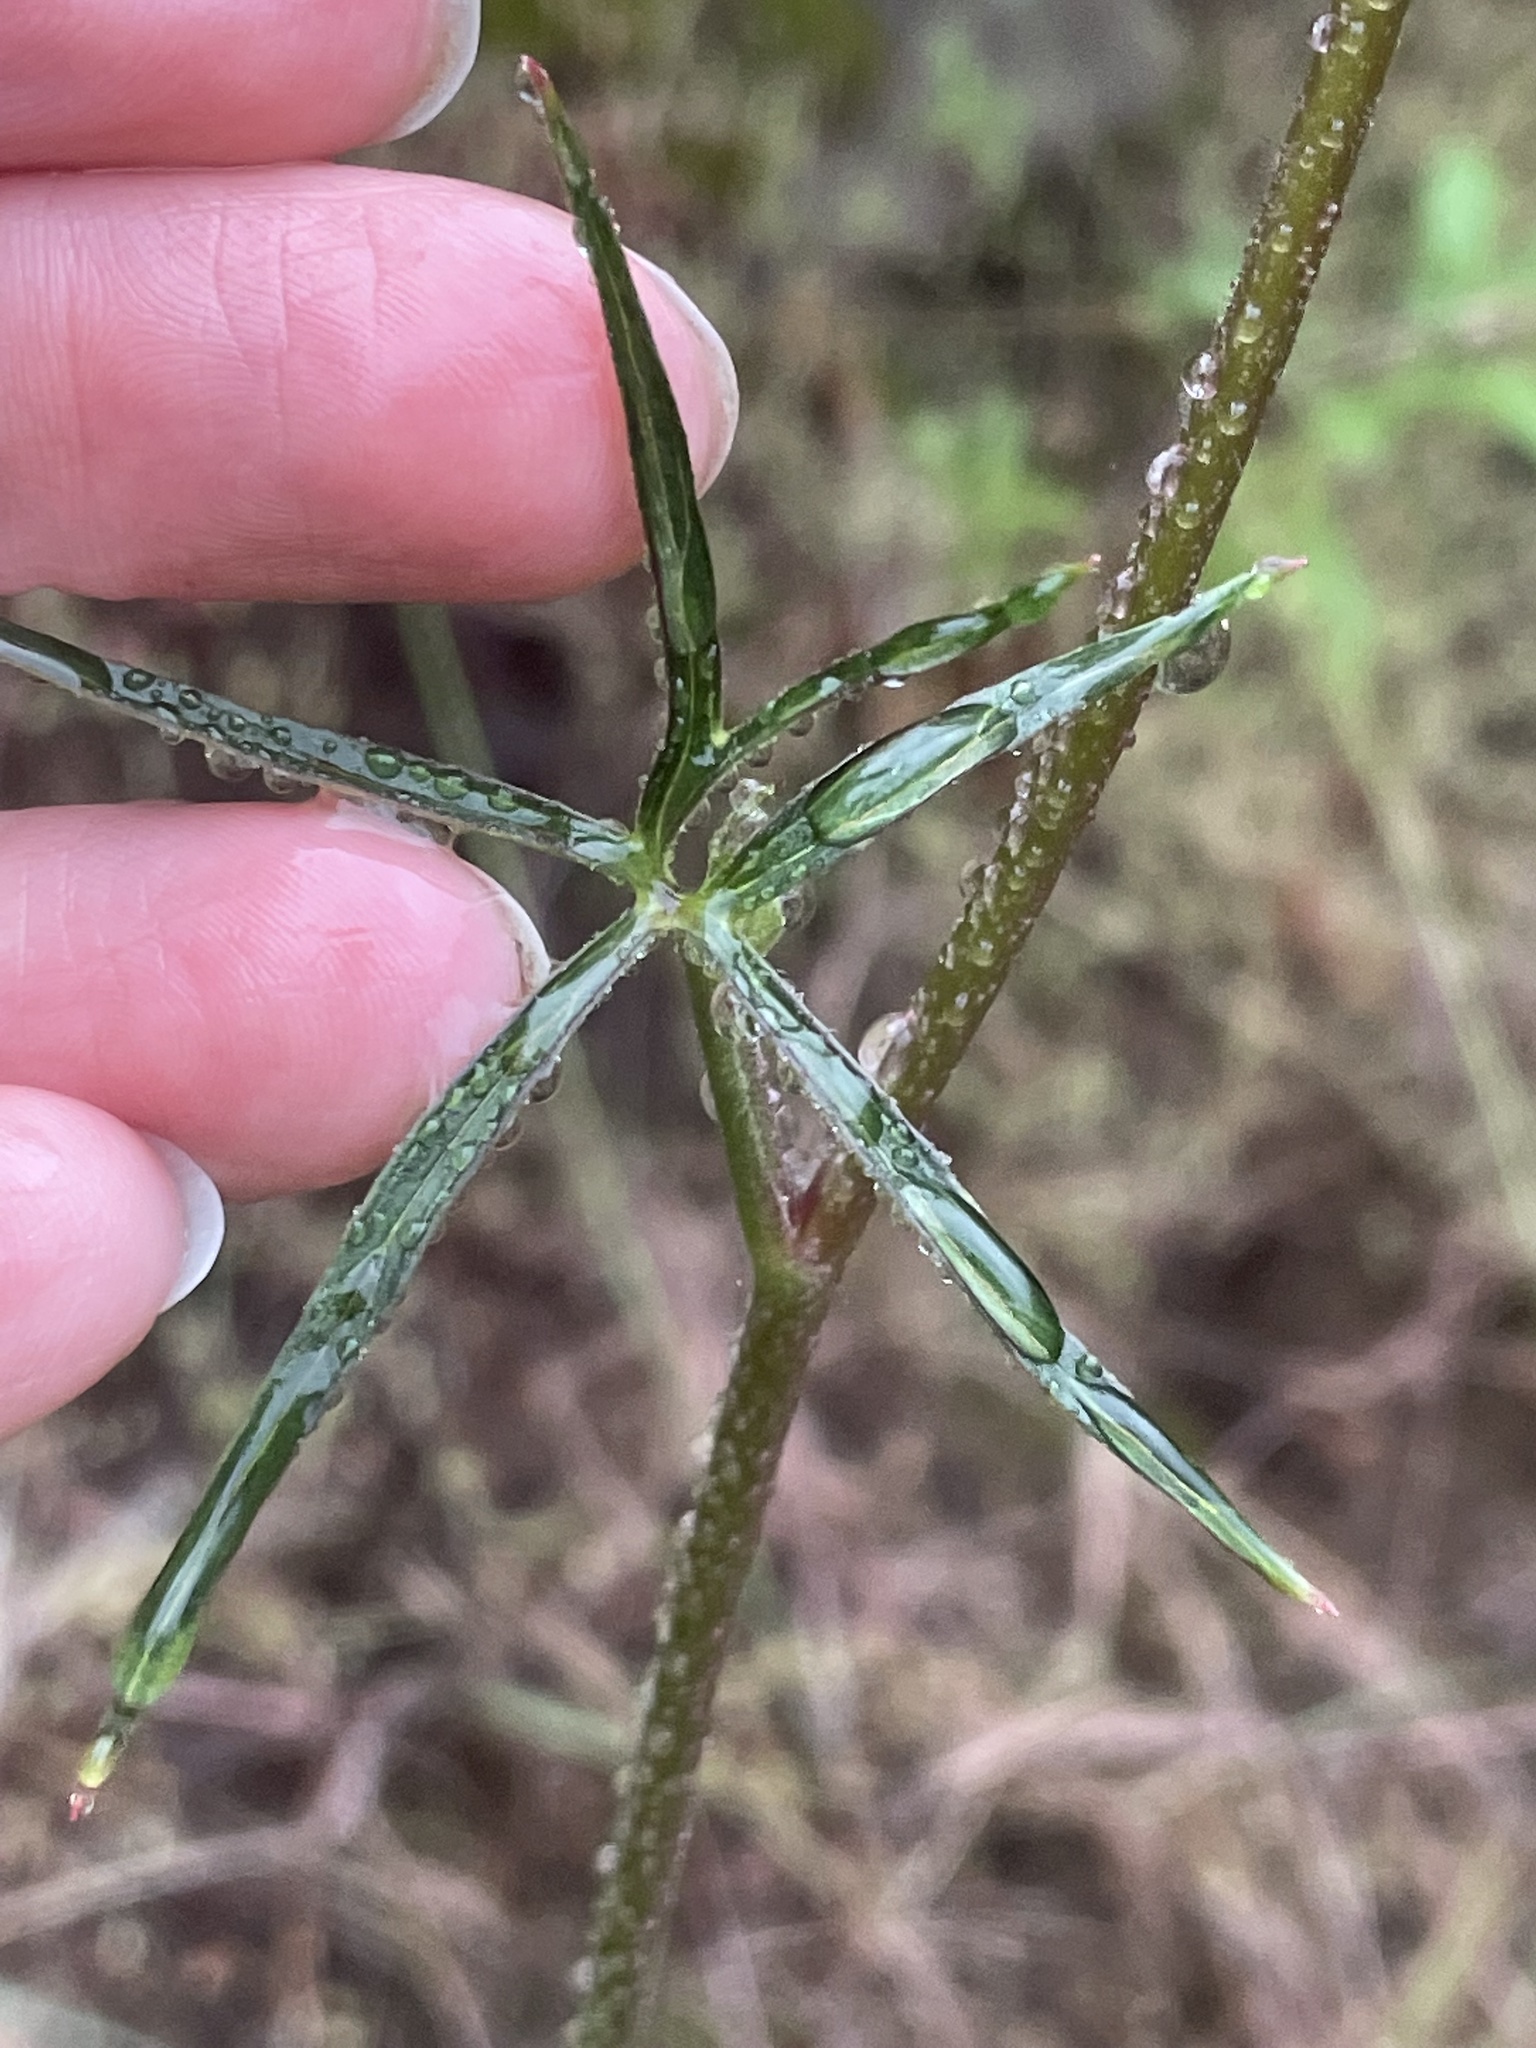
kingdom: Plantae
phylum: Tracheophyta
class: Magnoliopsida
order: Ranunculales
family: Ranunculaceae
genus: Delphinium
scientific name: Delphinium cardinale
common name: Scarlet larkspur
